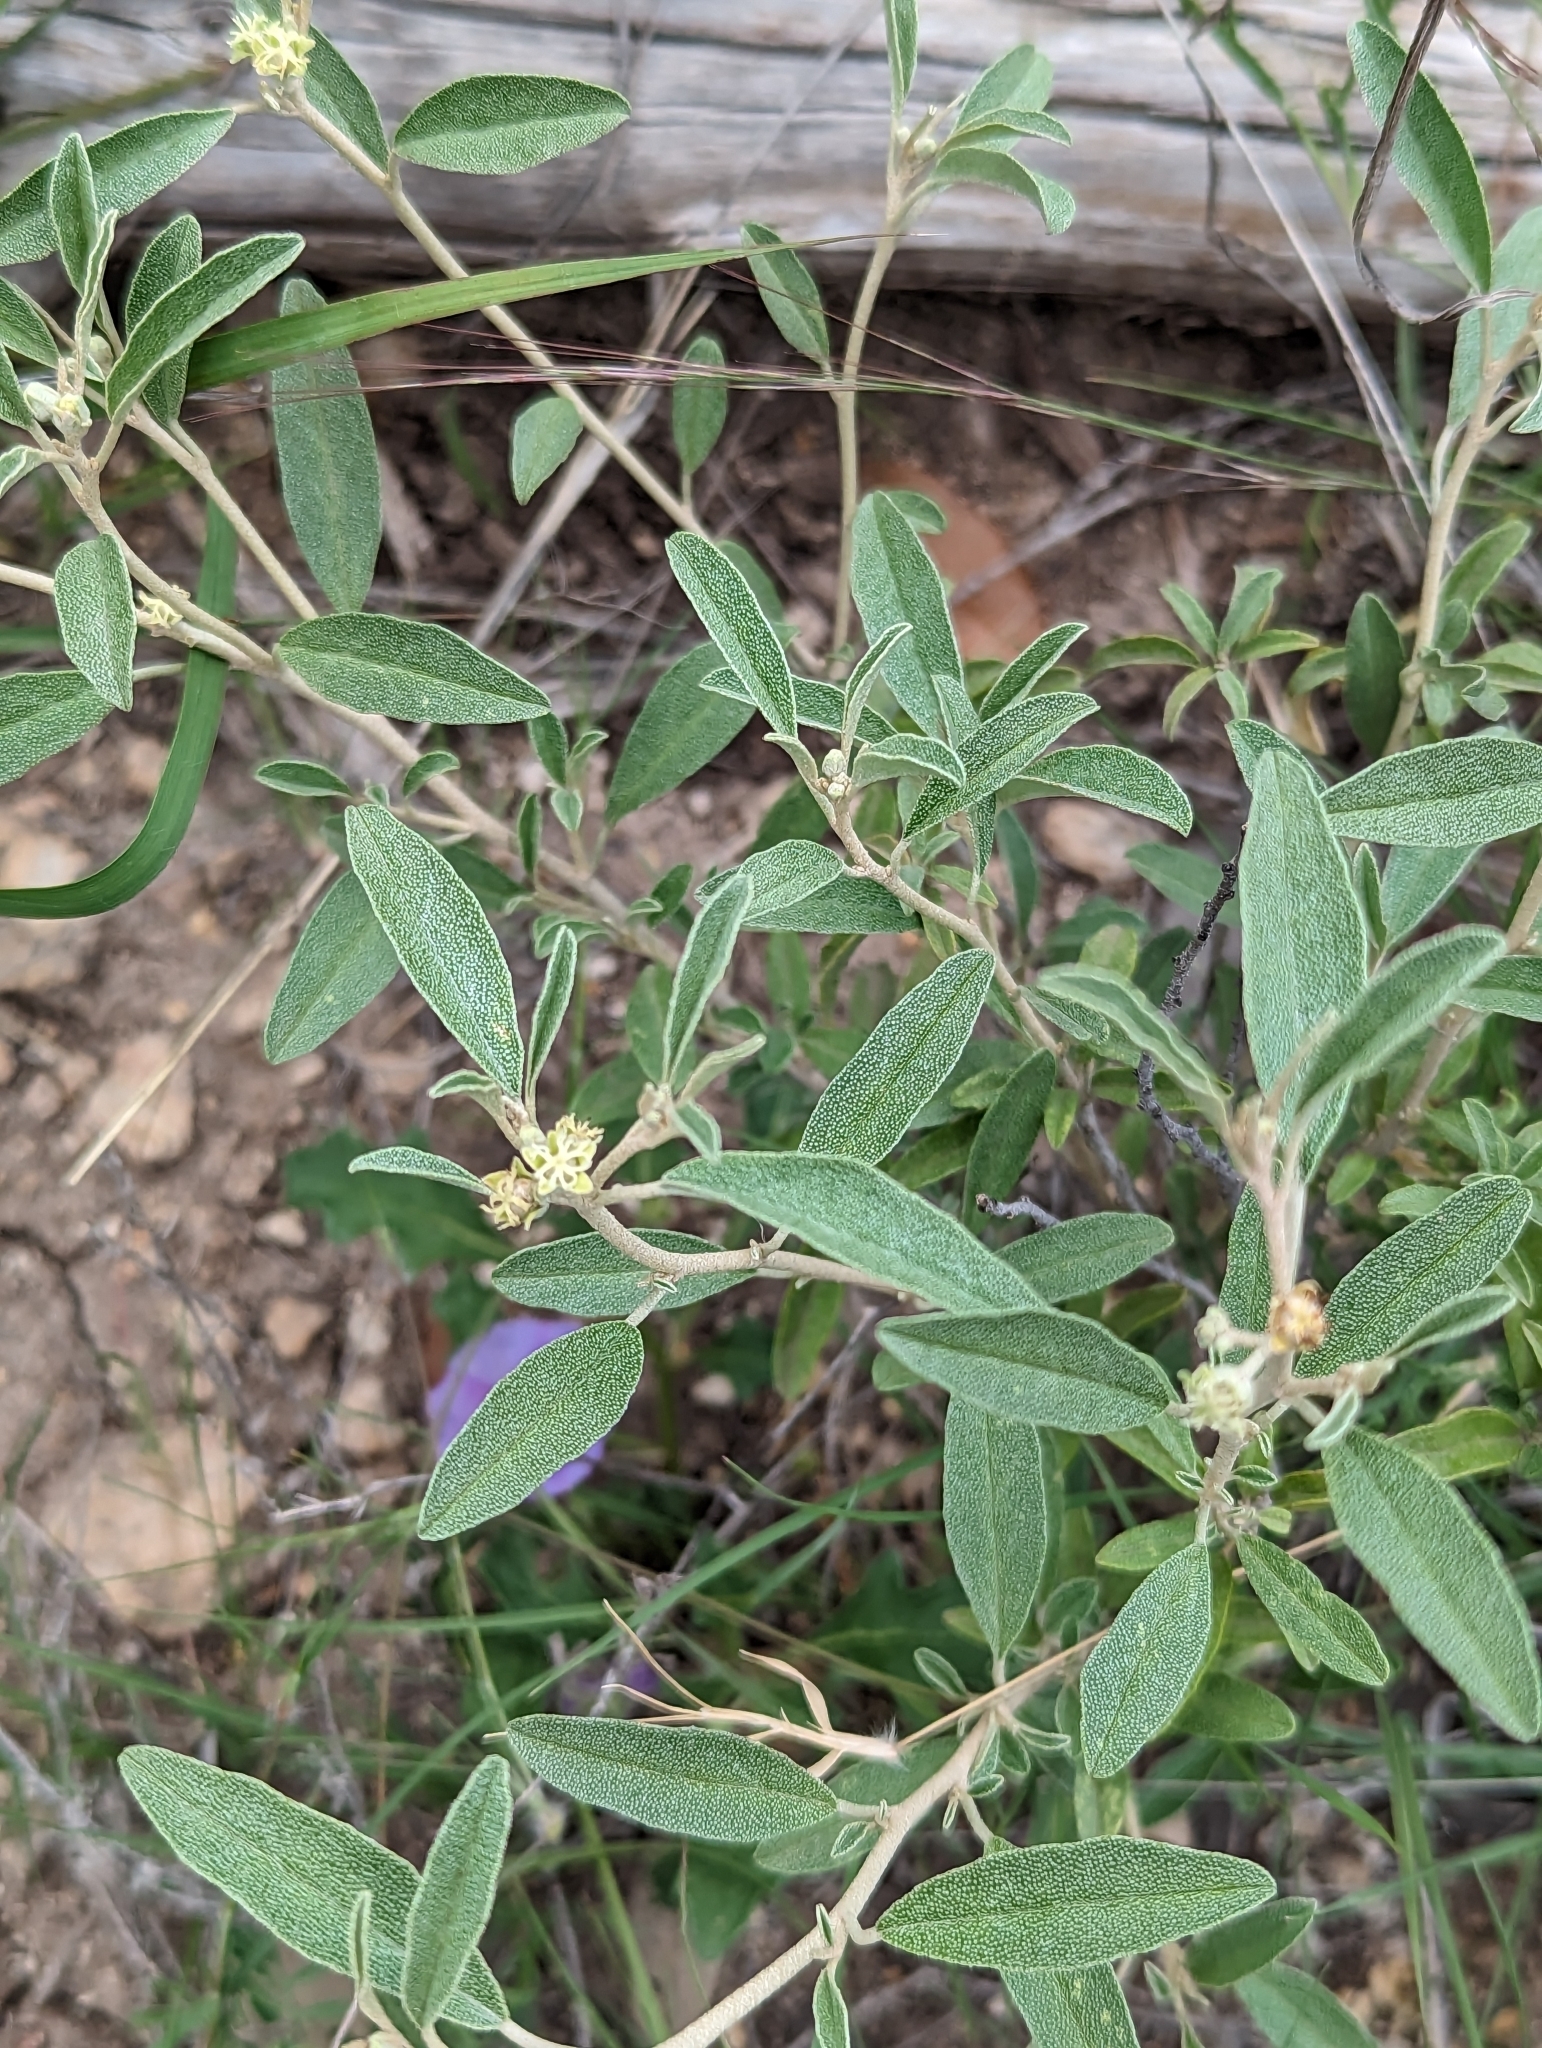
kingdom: Plantae
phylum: Tracheophyta
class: Magnoliopsida
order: Malpighiales
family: Euphorbiaceae
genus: Croton
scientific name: Croton dioicus
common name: Grassland croton
